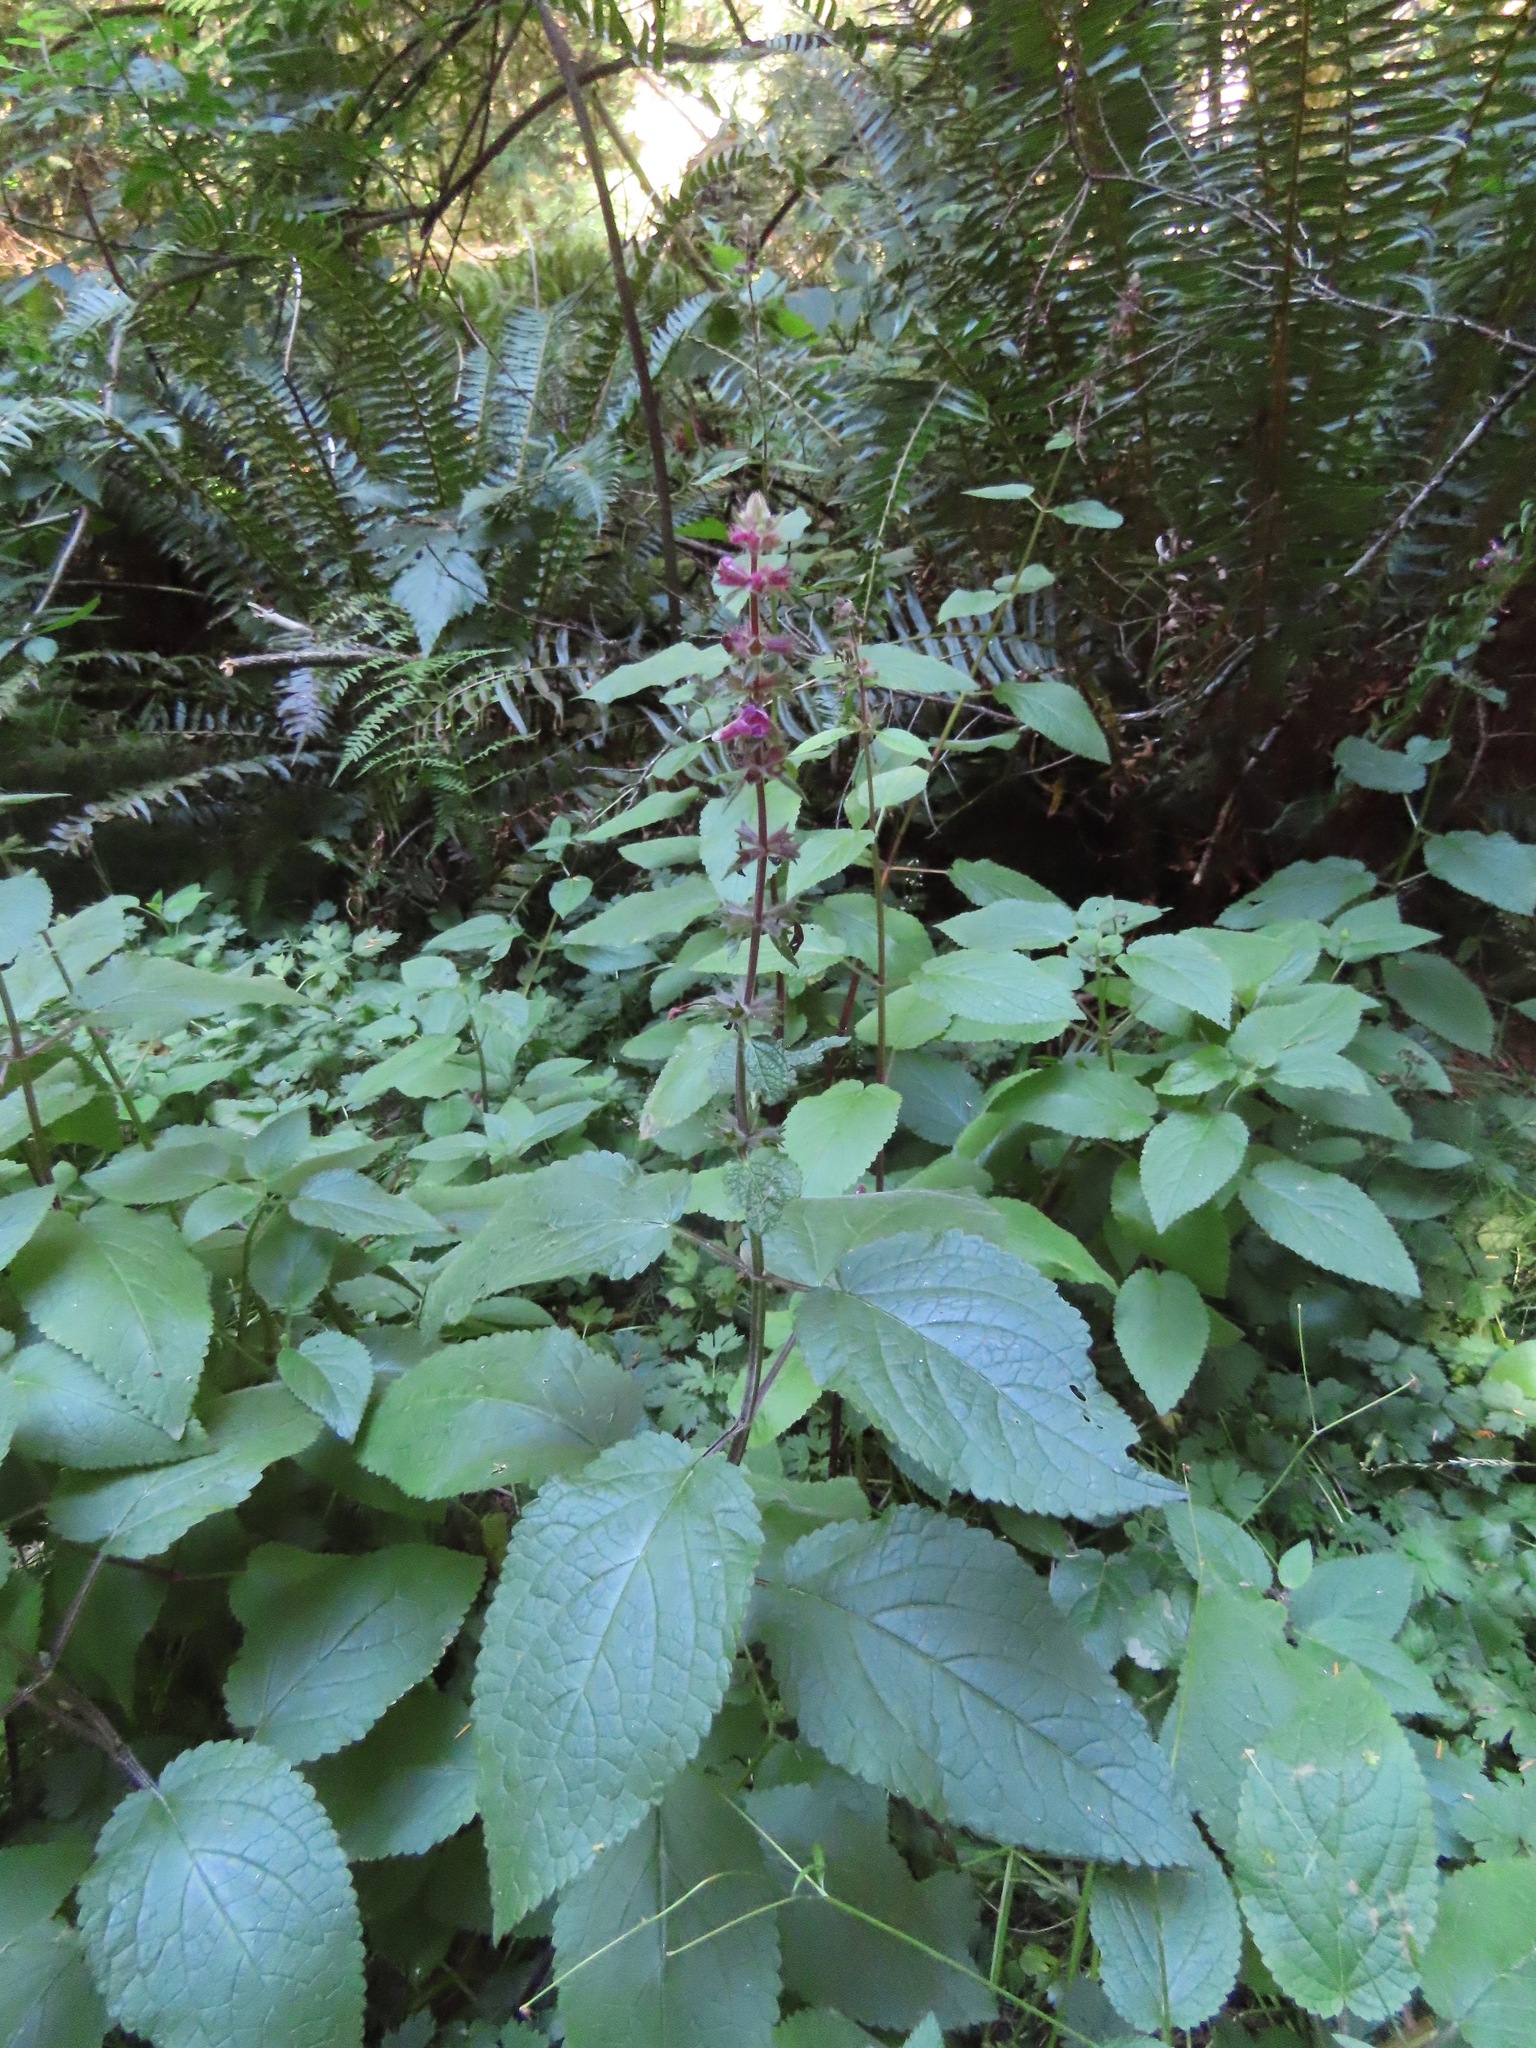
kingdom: Plantae
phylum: Tracheophyta
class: Magnoliopsida
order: Lamiales
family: Lamiaceae
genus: Stachys
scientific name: Stachys chamissonis
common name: Coastal hedge-nettle
